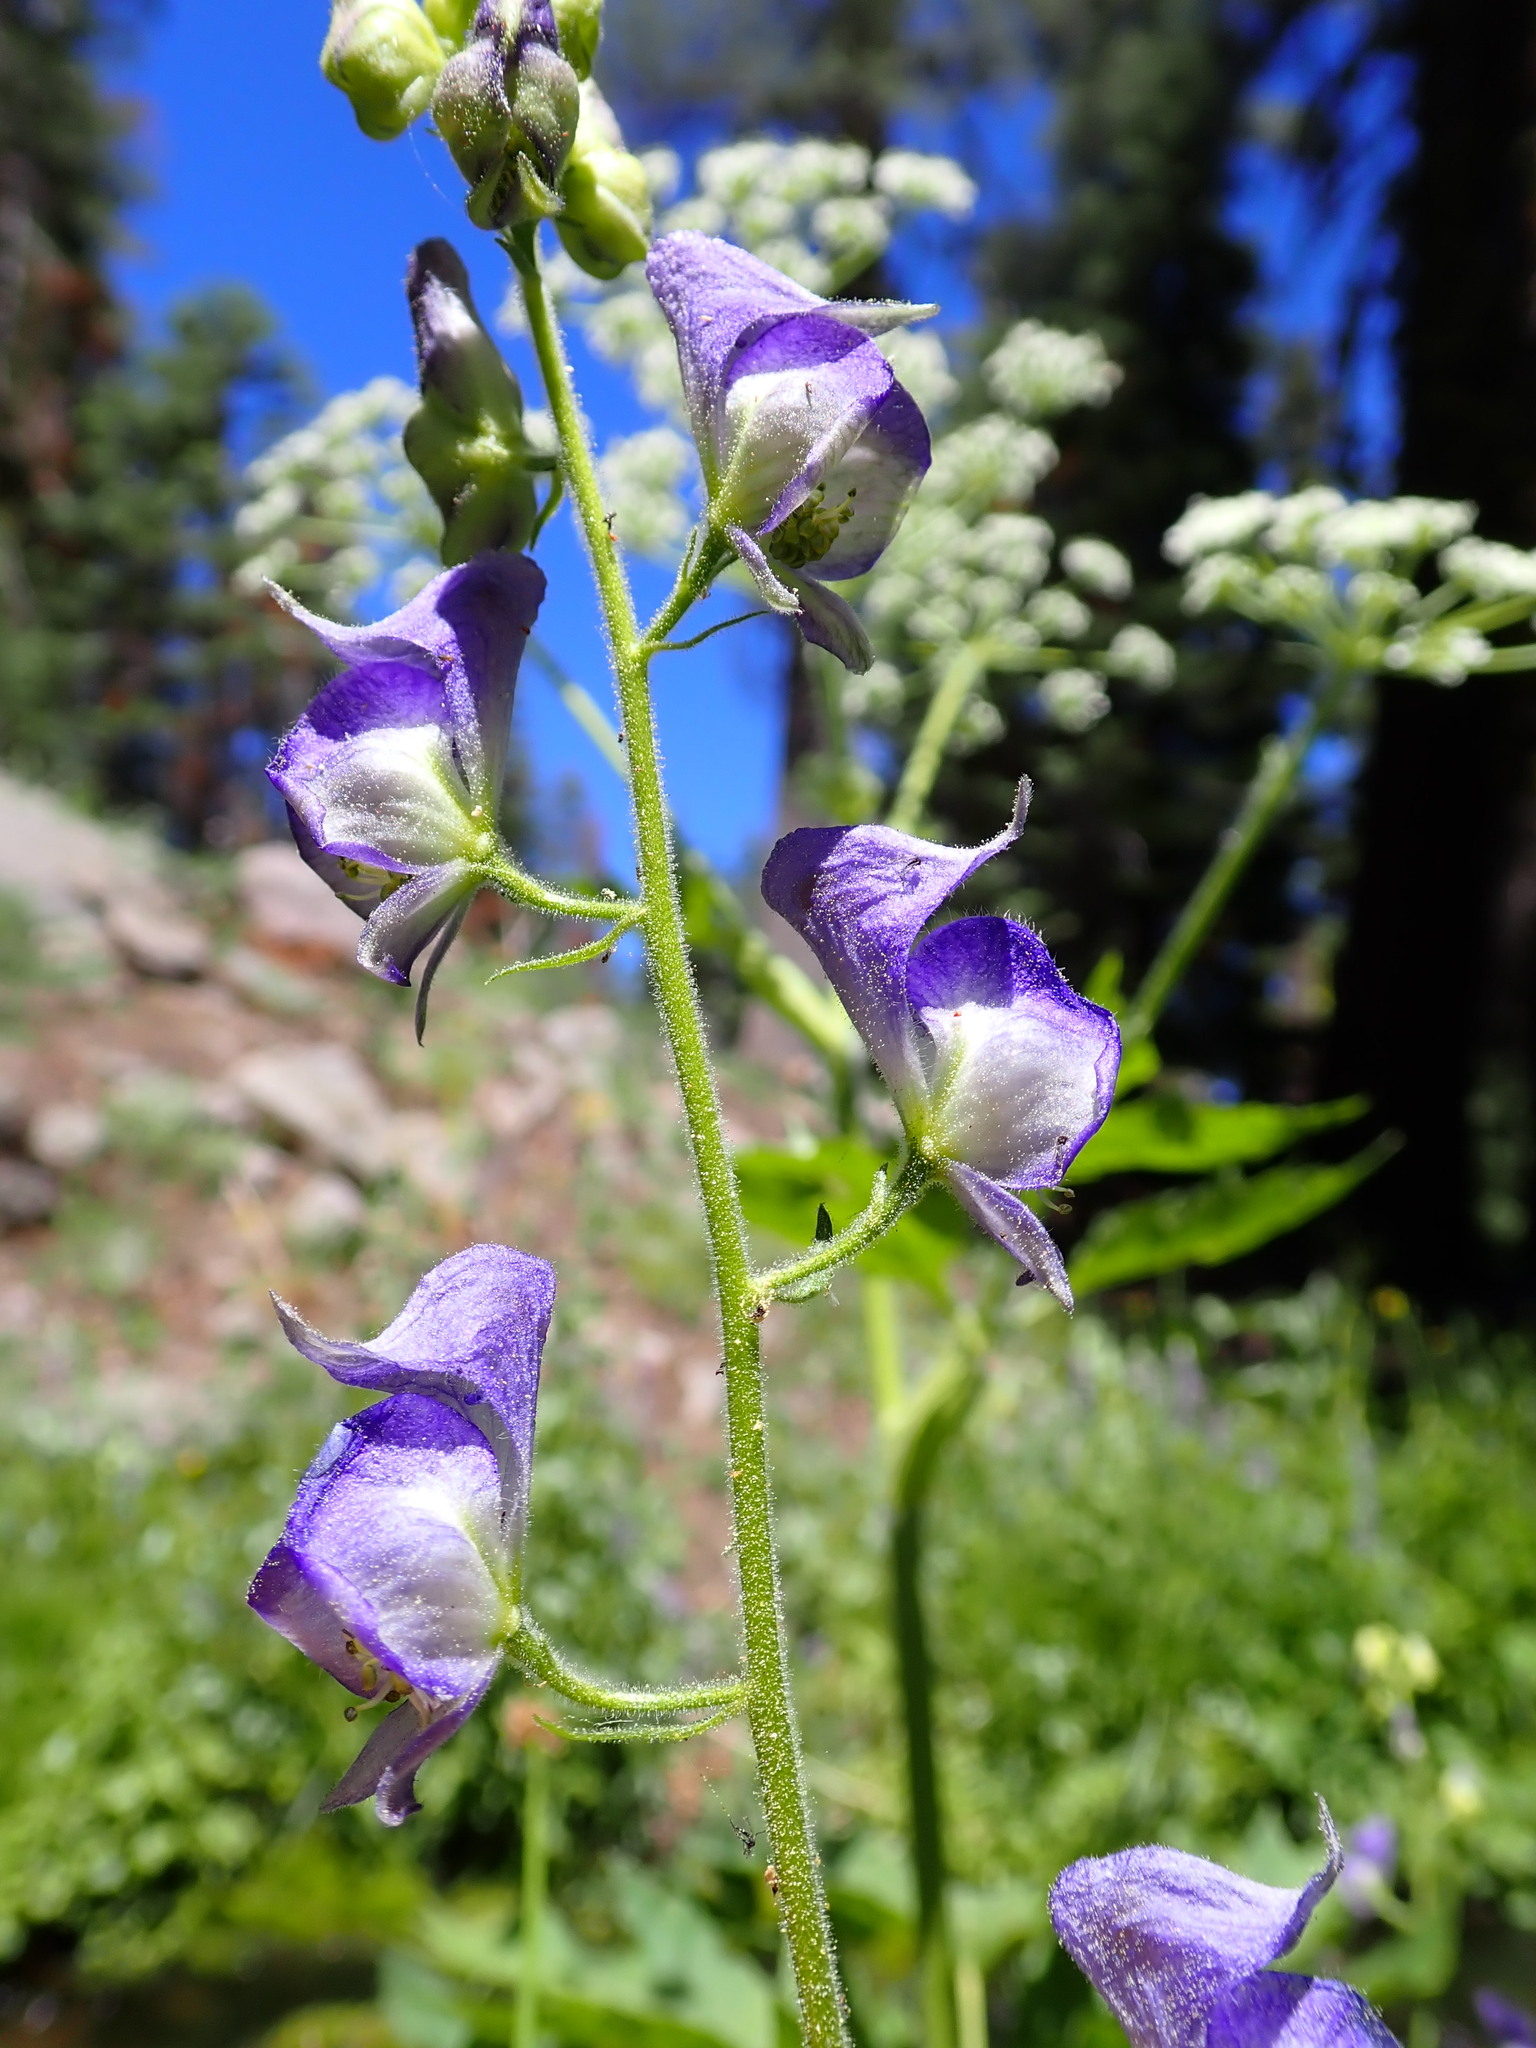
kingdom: Plantae
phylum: Tracheophyta
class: Magnoliopsida
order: Ranunculales
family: Ranunculaceae
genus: Aconitum
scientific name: Aconitum columbianum
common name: Columbia aconite
